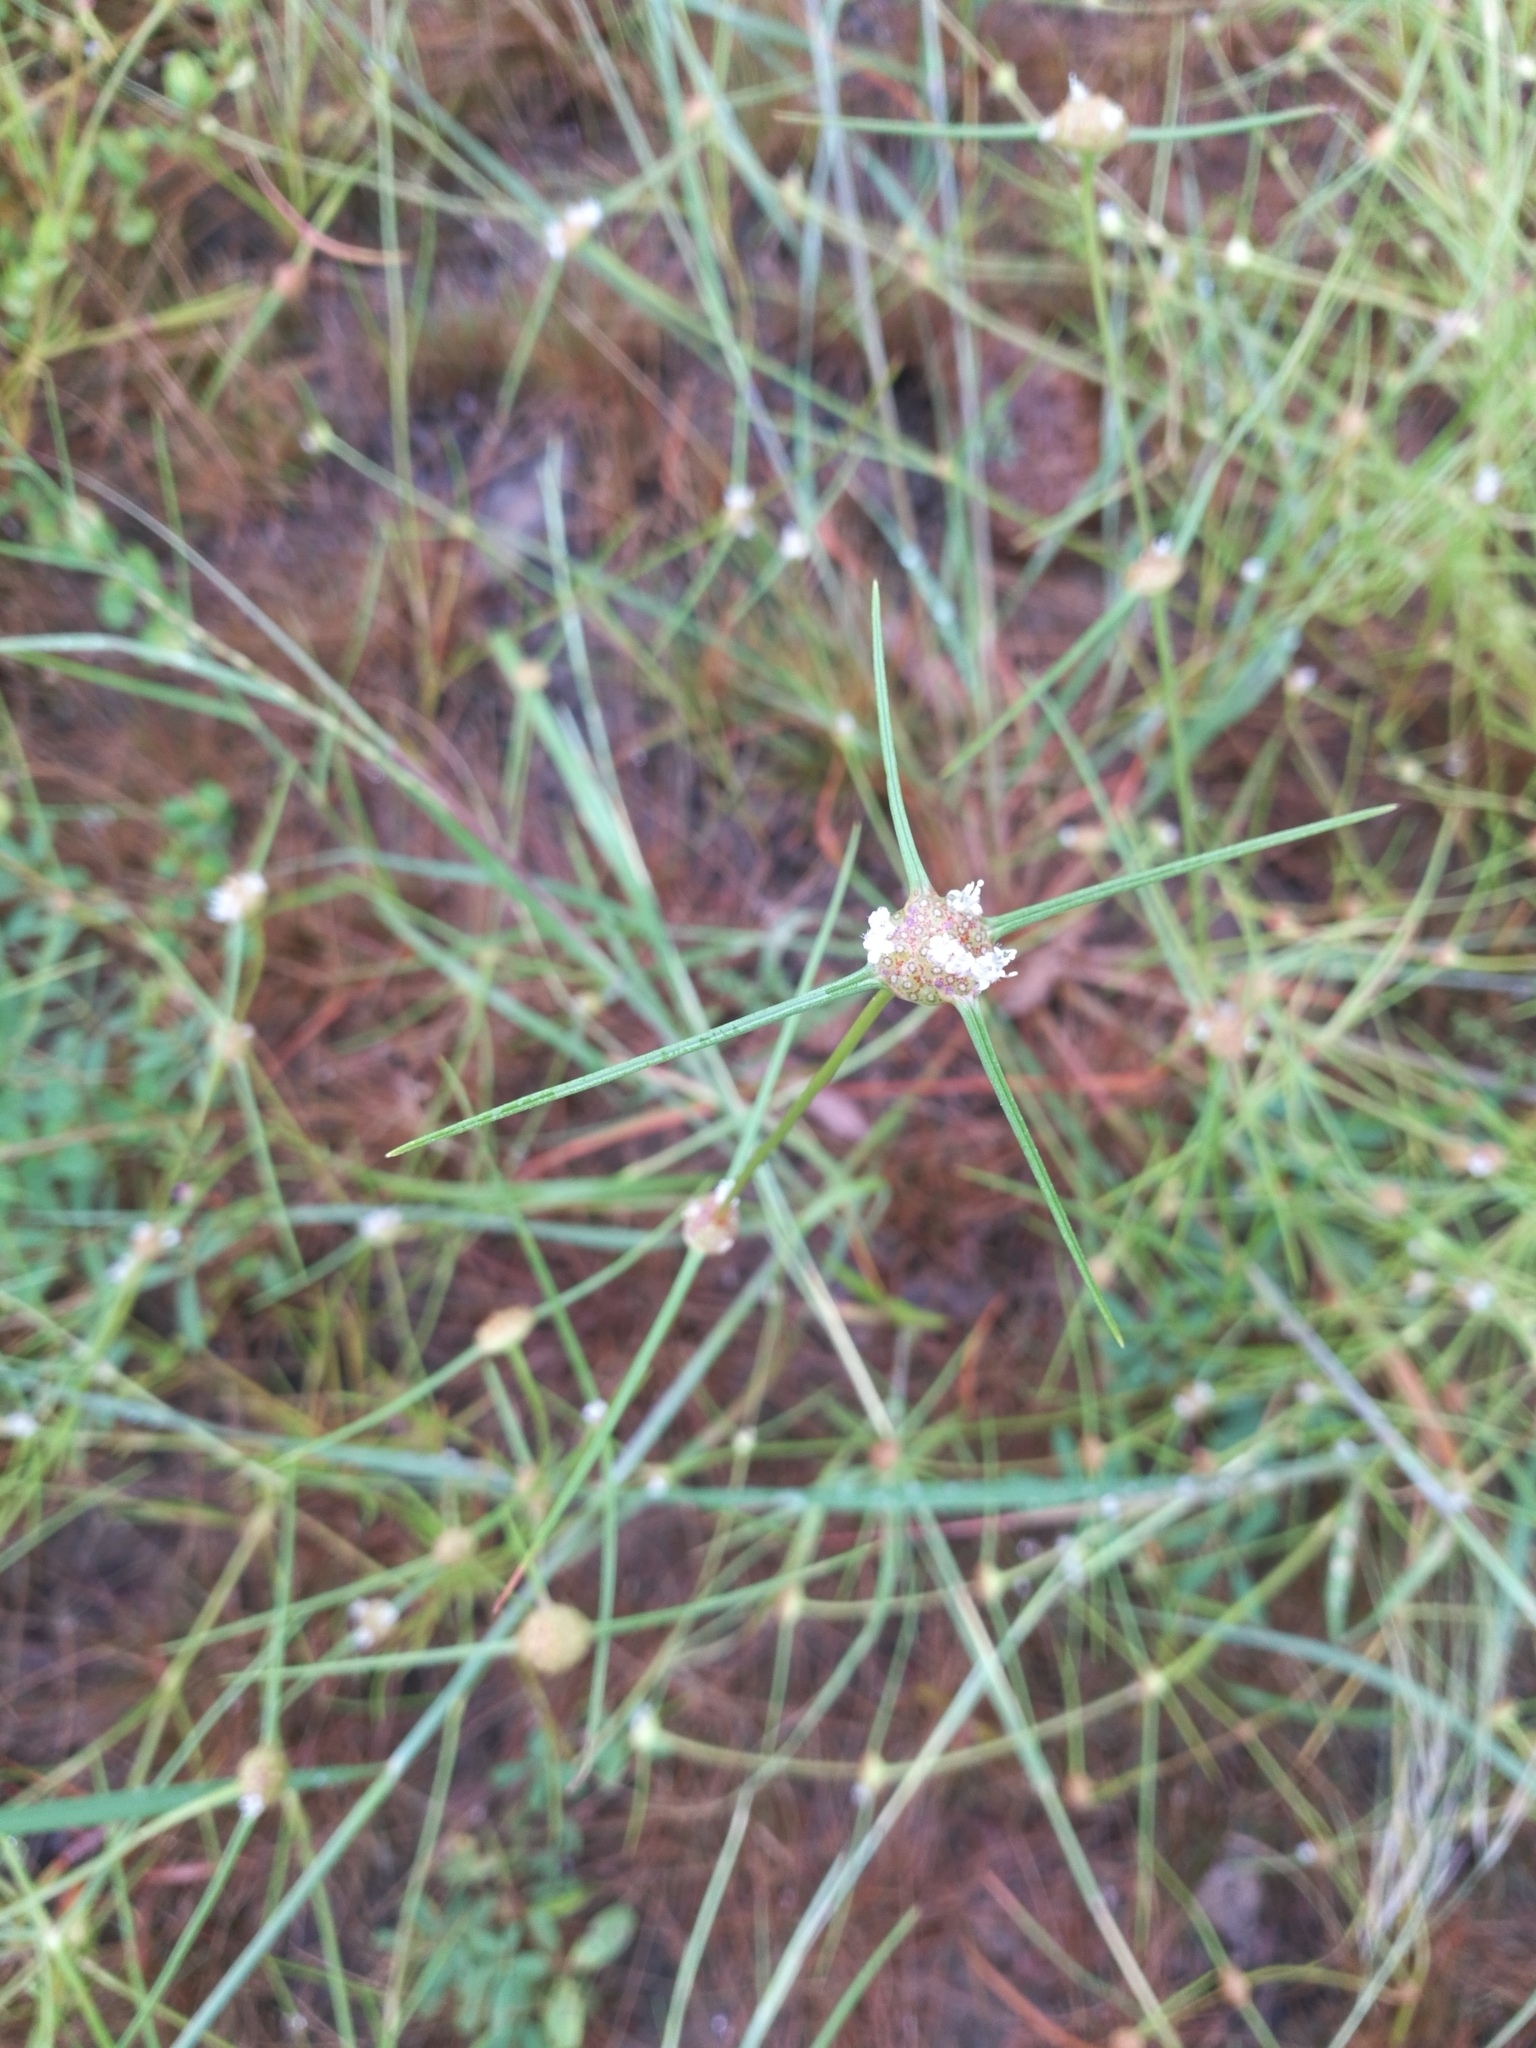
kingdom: Plantae
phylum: Tracheophyta
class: Magnoliopsida
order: Gentianales
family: Rubiaceae
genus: Spermacoce
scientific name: Spermacoce filifolia
